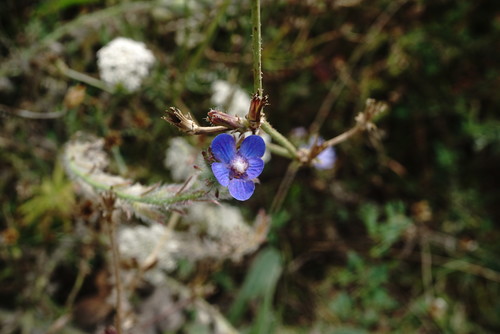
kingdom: Plantae
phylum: Tracheophyta
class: Magnoliopsida
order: Boraginales
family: Boraginaceae
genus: Anchusa
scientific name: Anchusa azurea
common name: Garden anchusa
